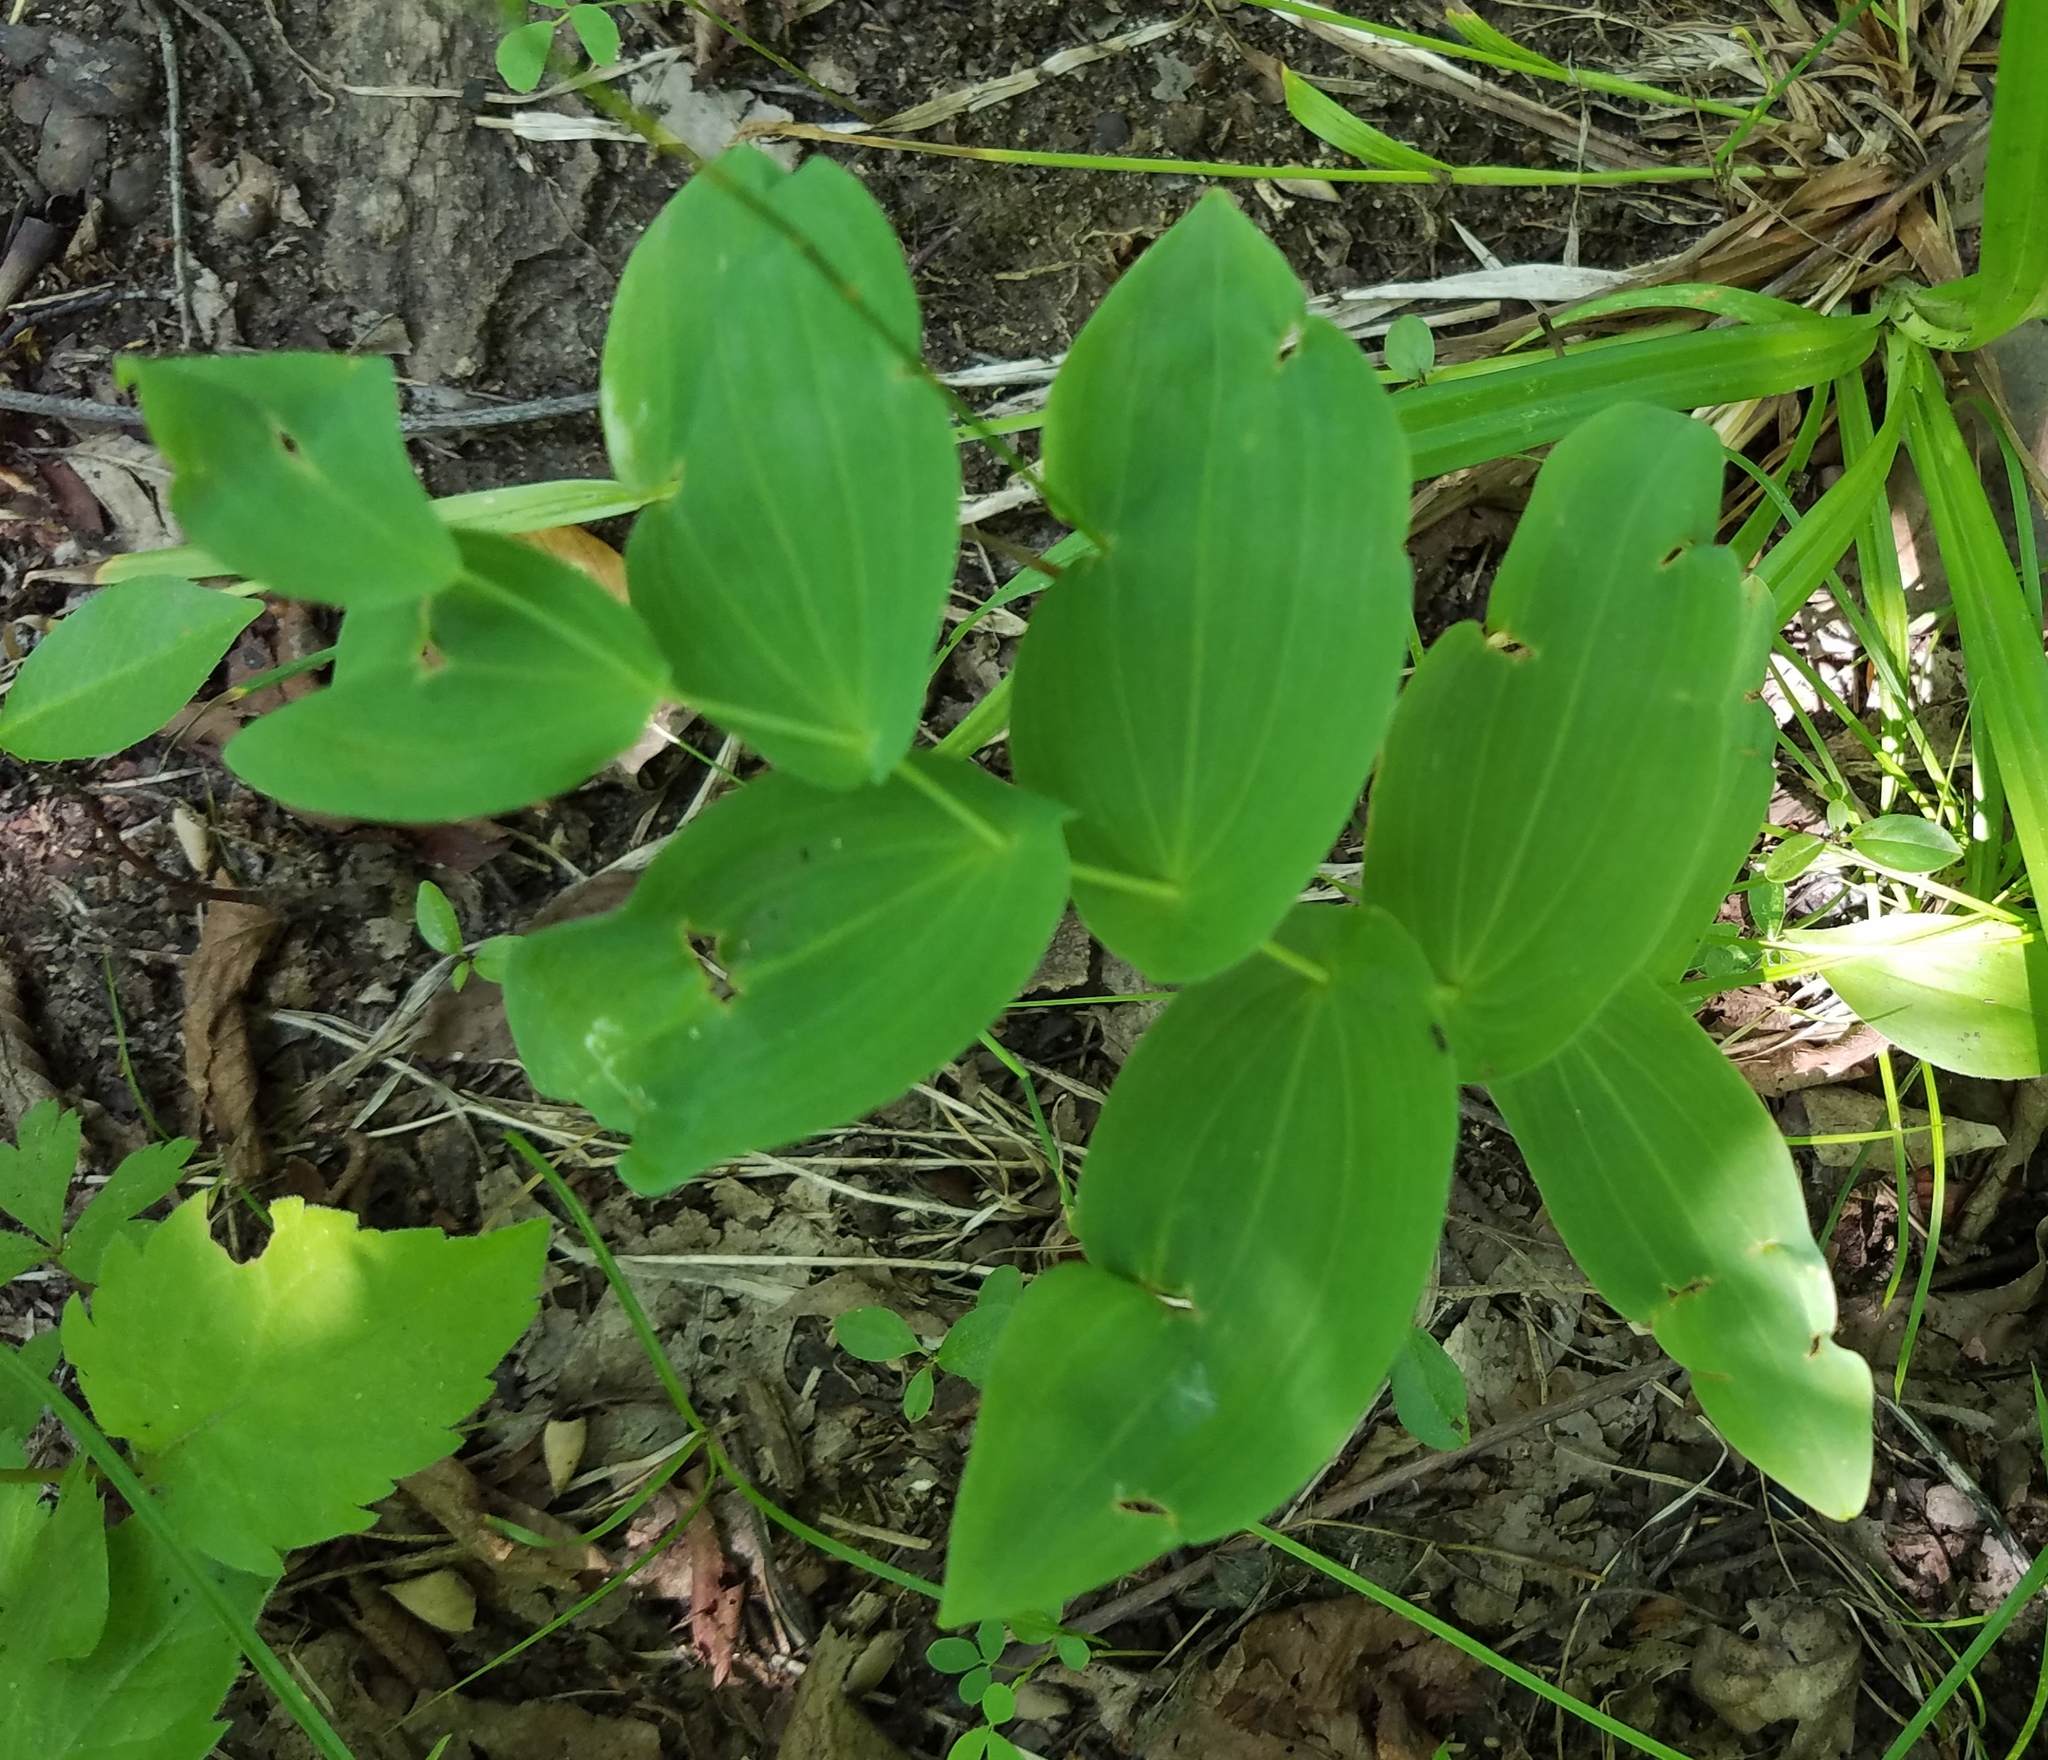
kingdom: Plantae
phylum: Tracheophyta
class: Liliopsida
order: Liliales
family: Colchicaceae
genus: Uvularia
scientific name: Uvularia grandiflora
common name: Bellwort
